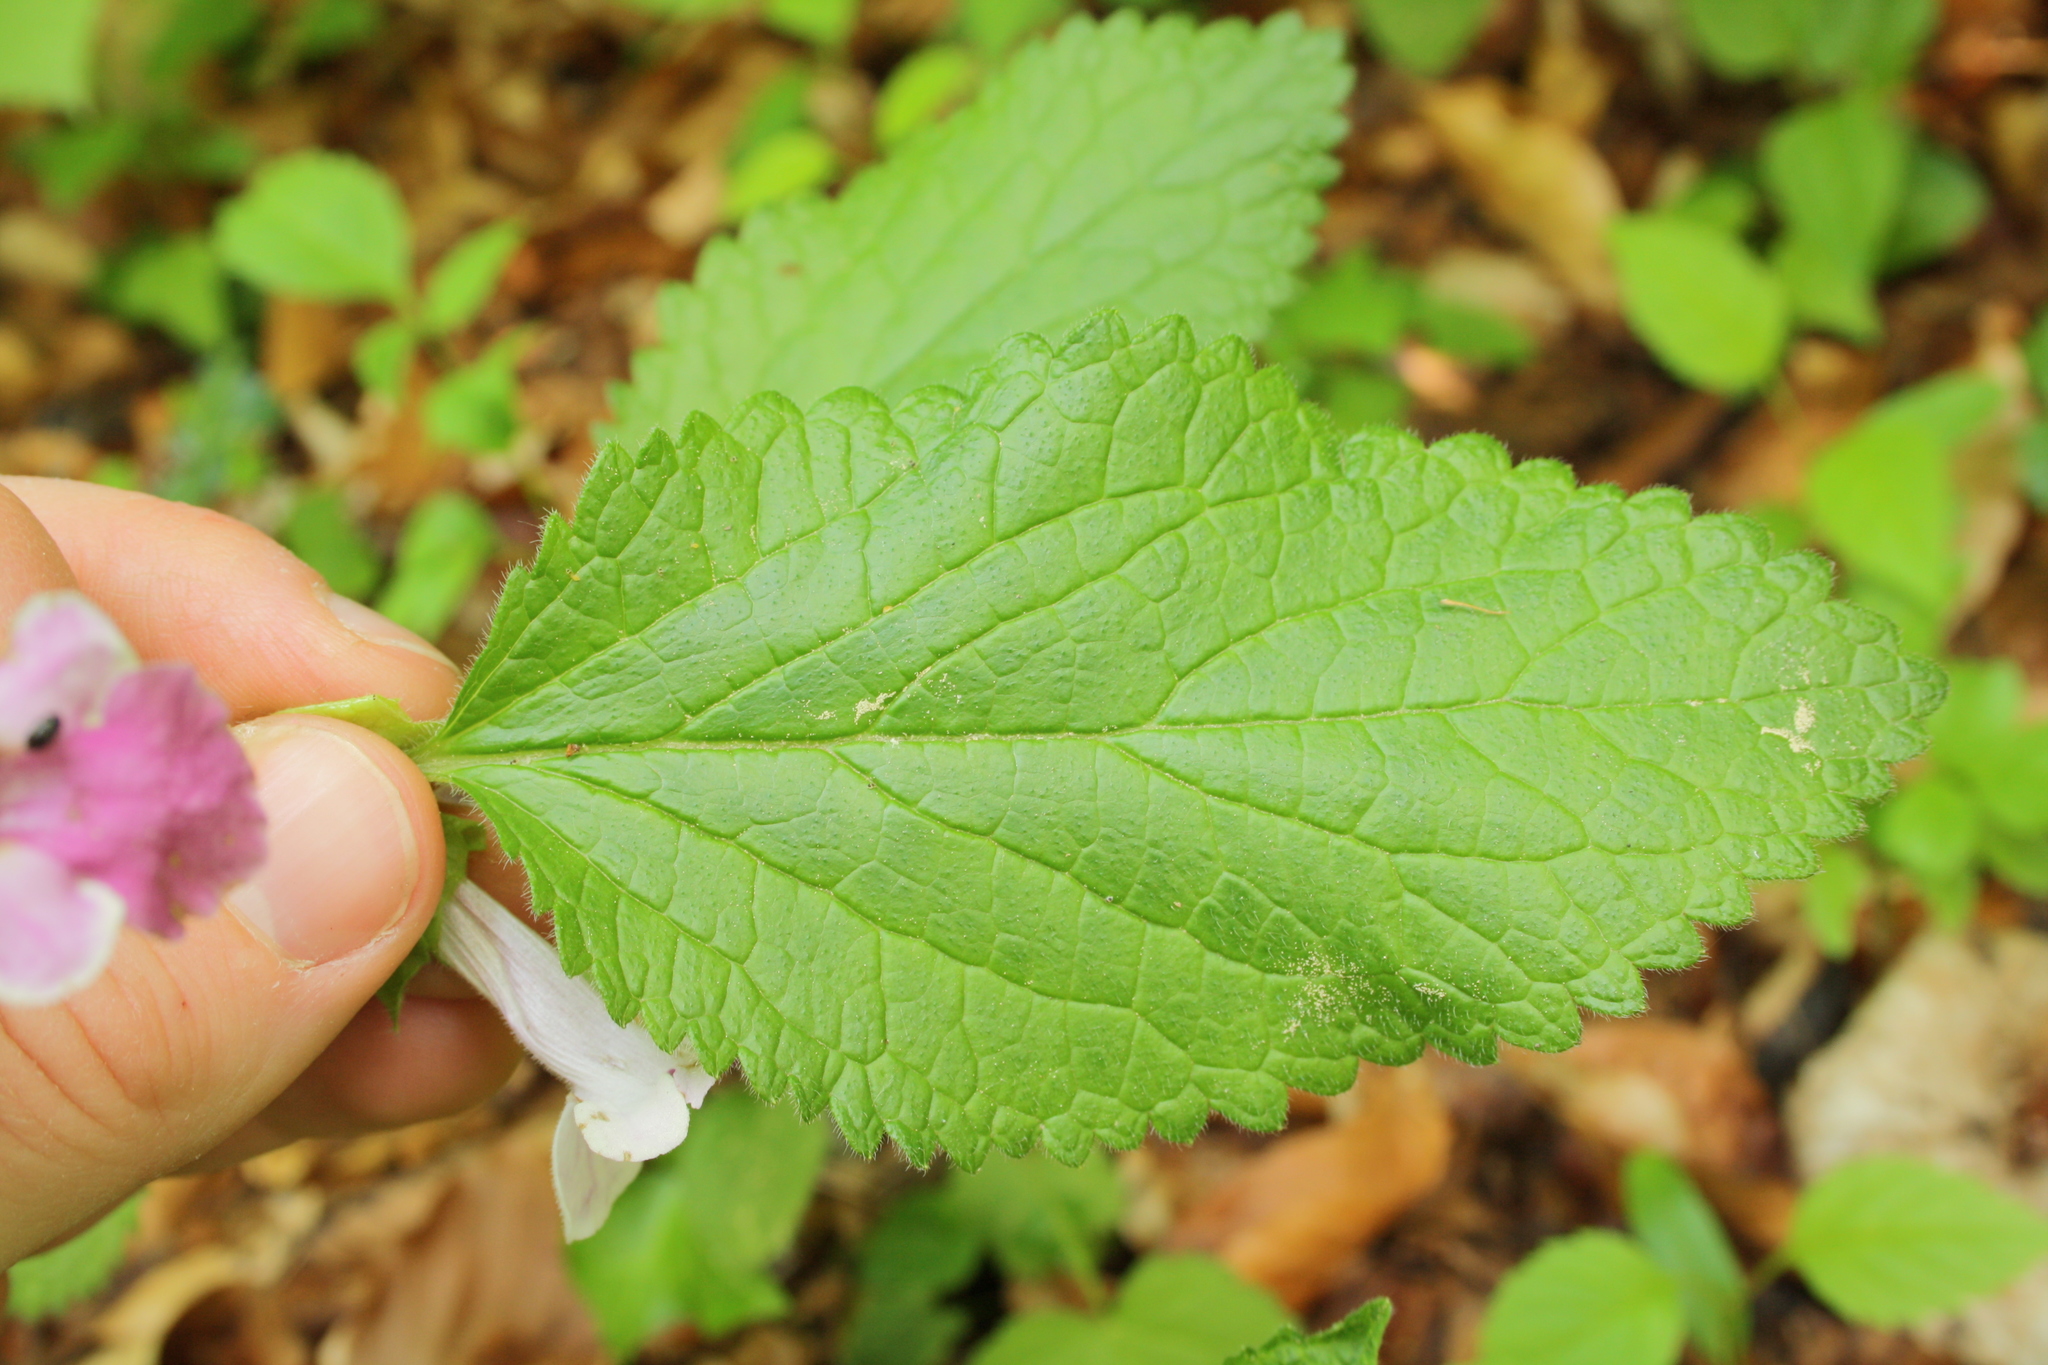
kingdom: Plantae
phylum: Tracheophyta
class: Magnoliopsida
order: Lamiales
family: Lamiaceae
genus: Melittis
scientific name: Melittis melissophyllum
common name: Bastard balm
